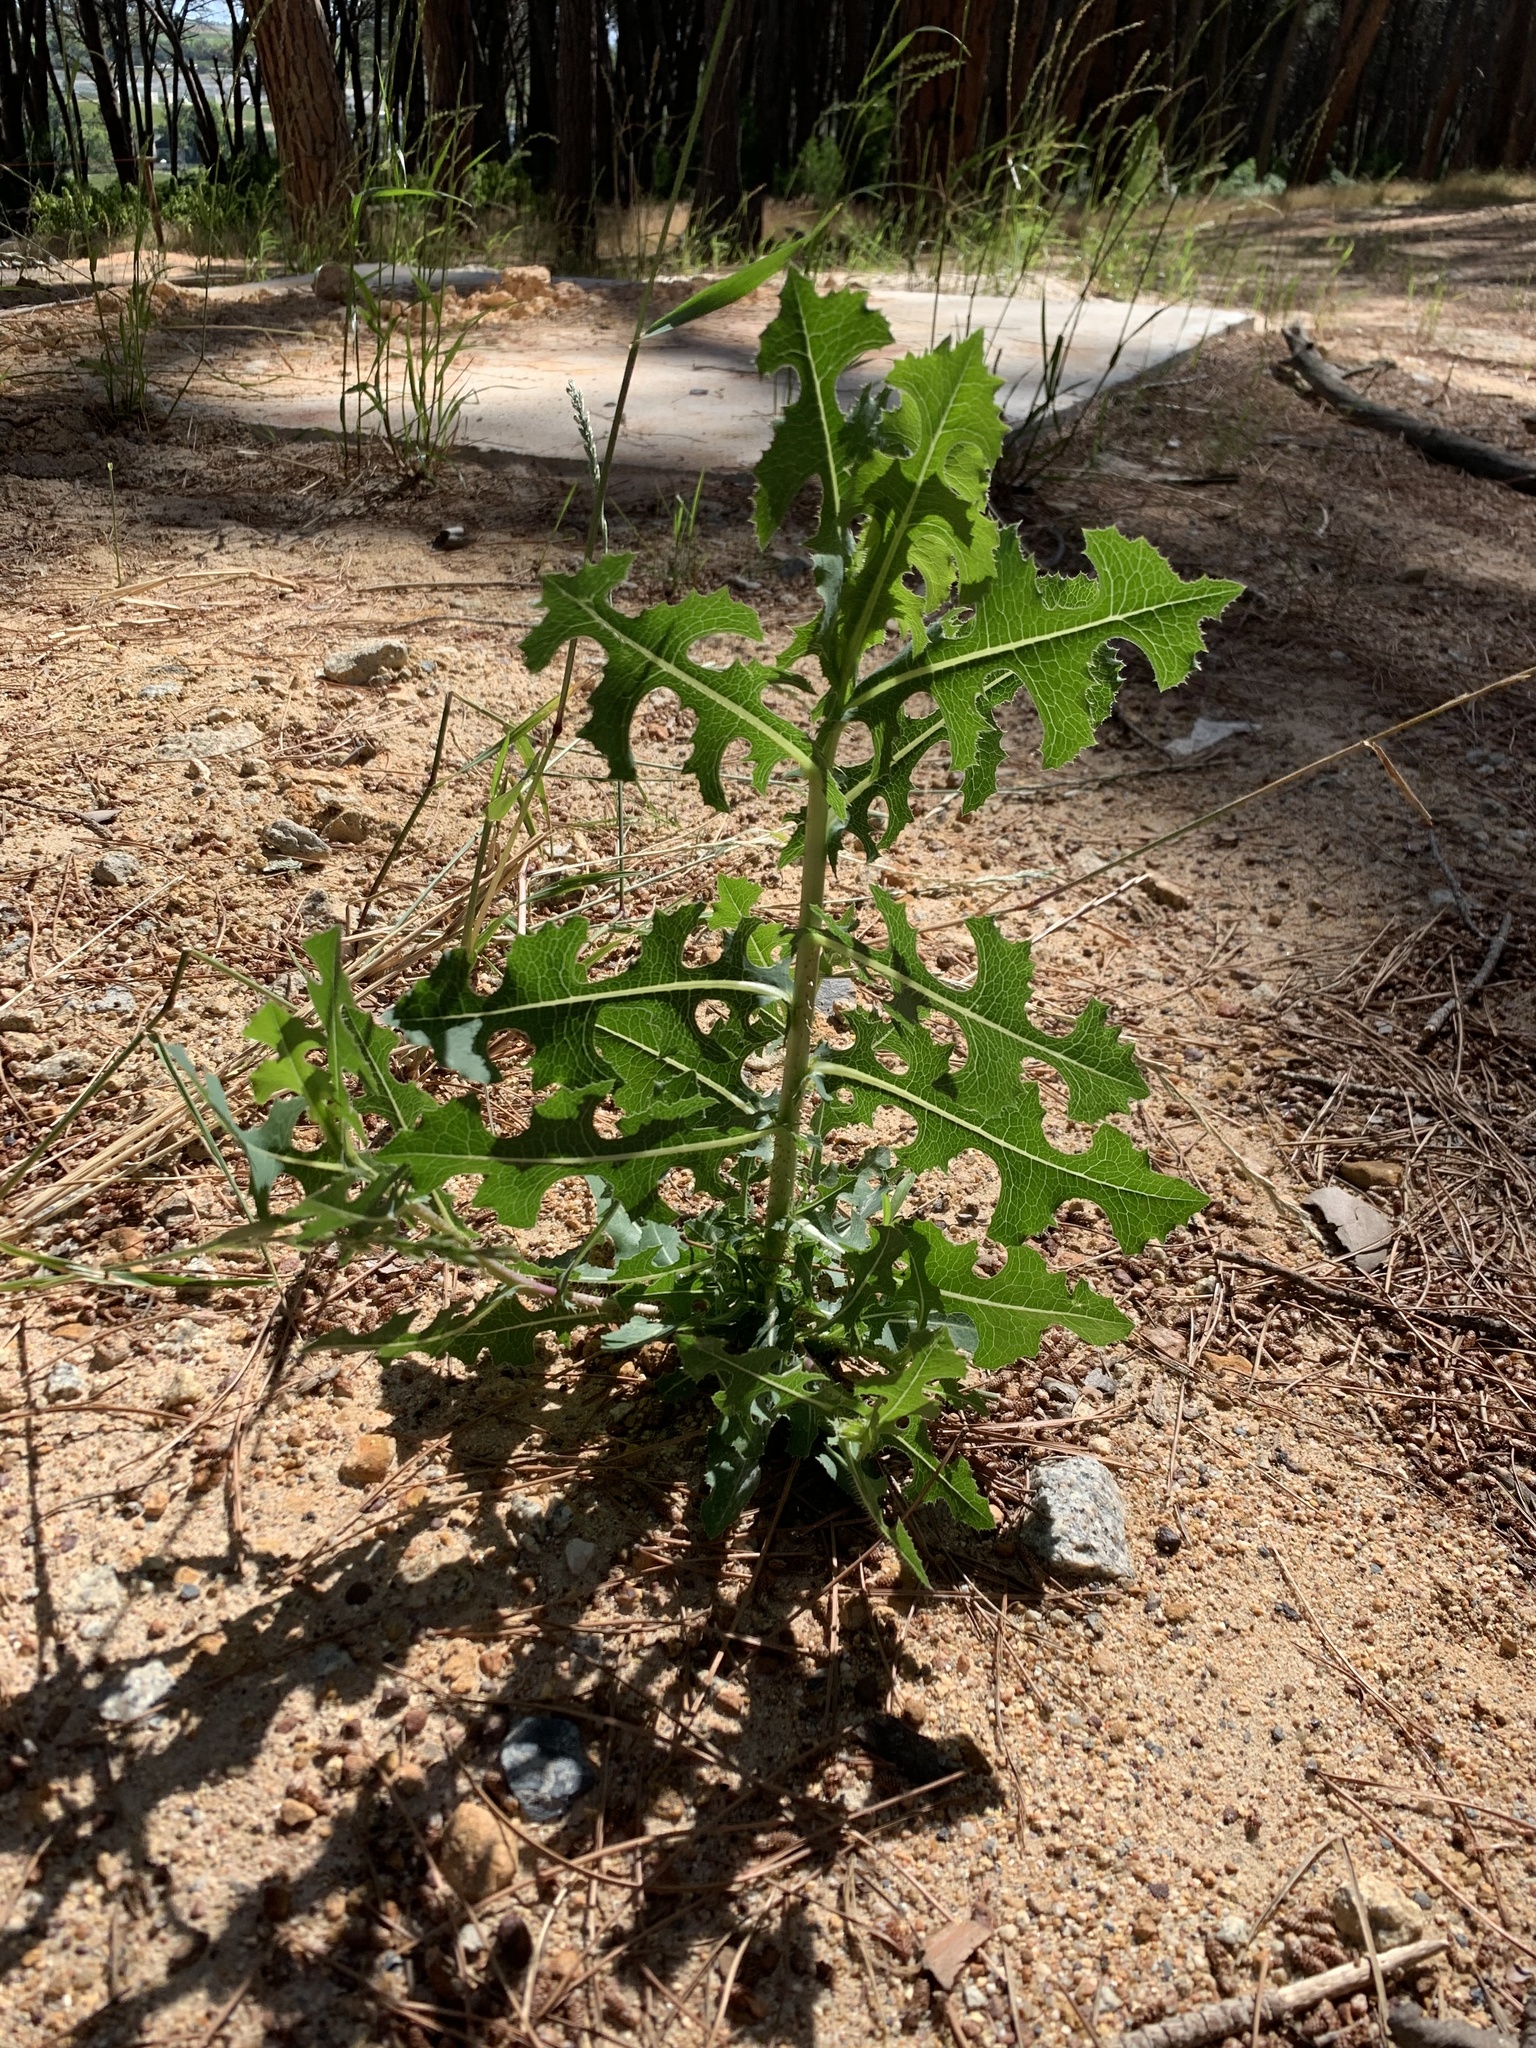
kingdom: Plantae
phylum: Tracheophyta
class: Magnoliopsida
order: Asterales
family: Asteraceae
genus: Lactuca
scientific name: Lactuca serriola
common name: Prickly lettuce
